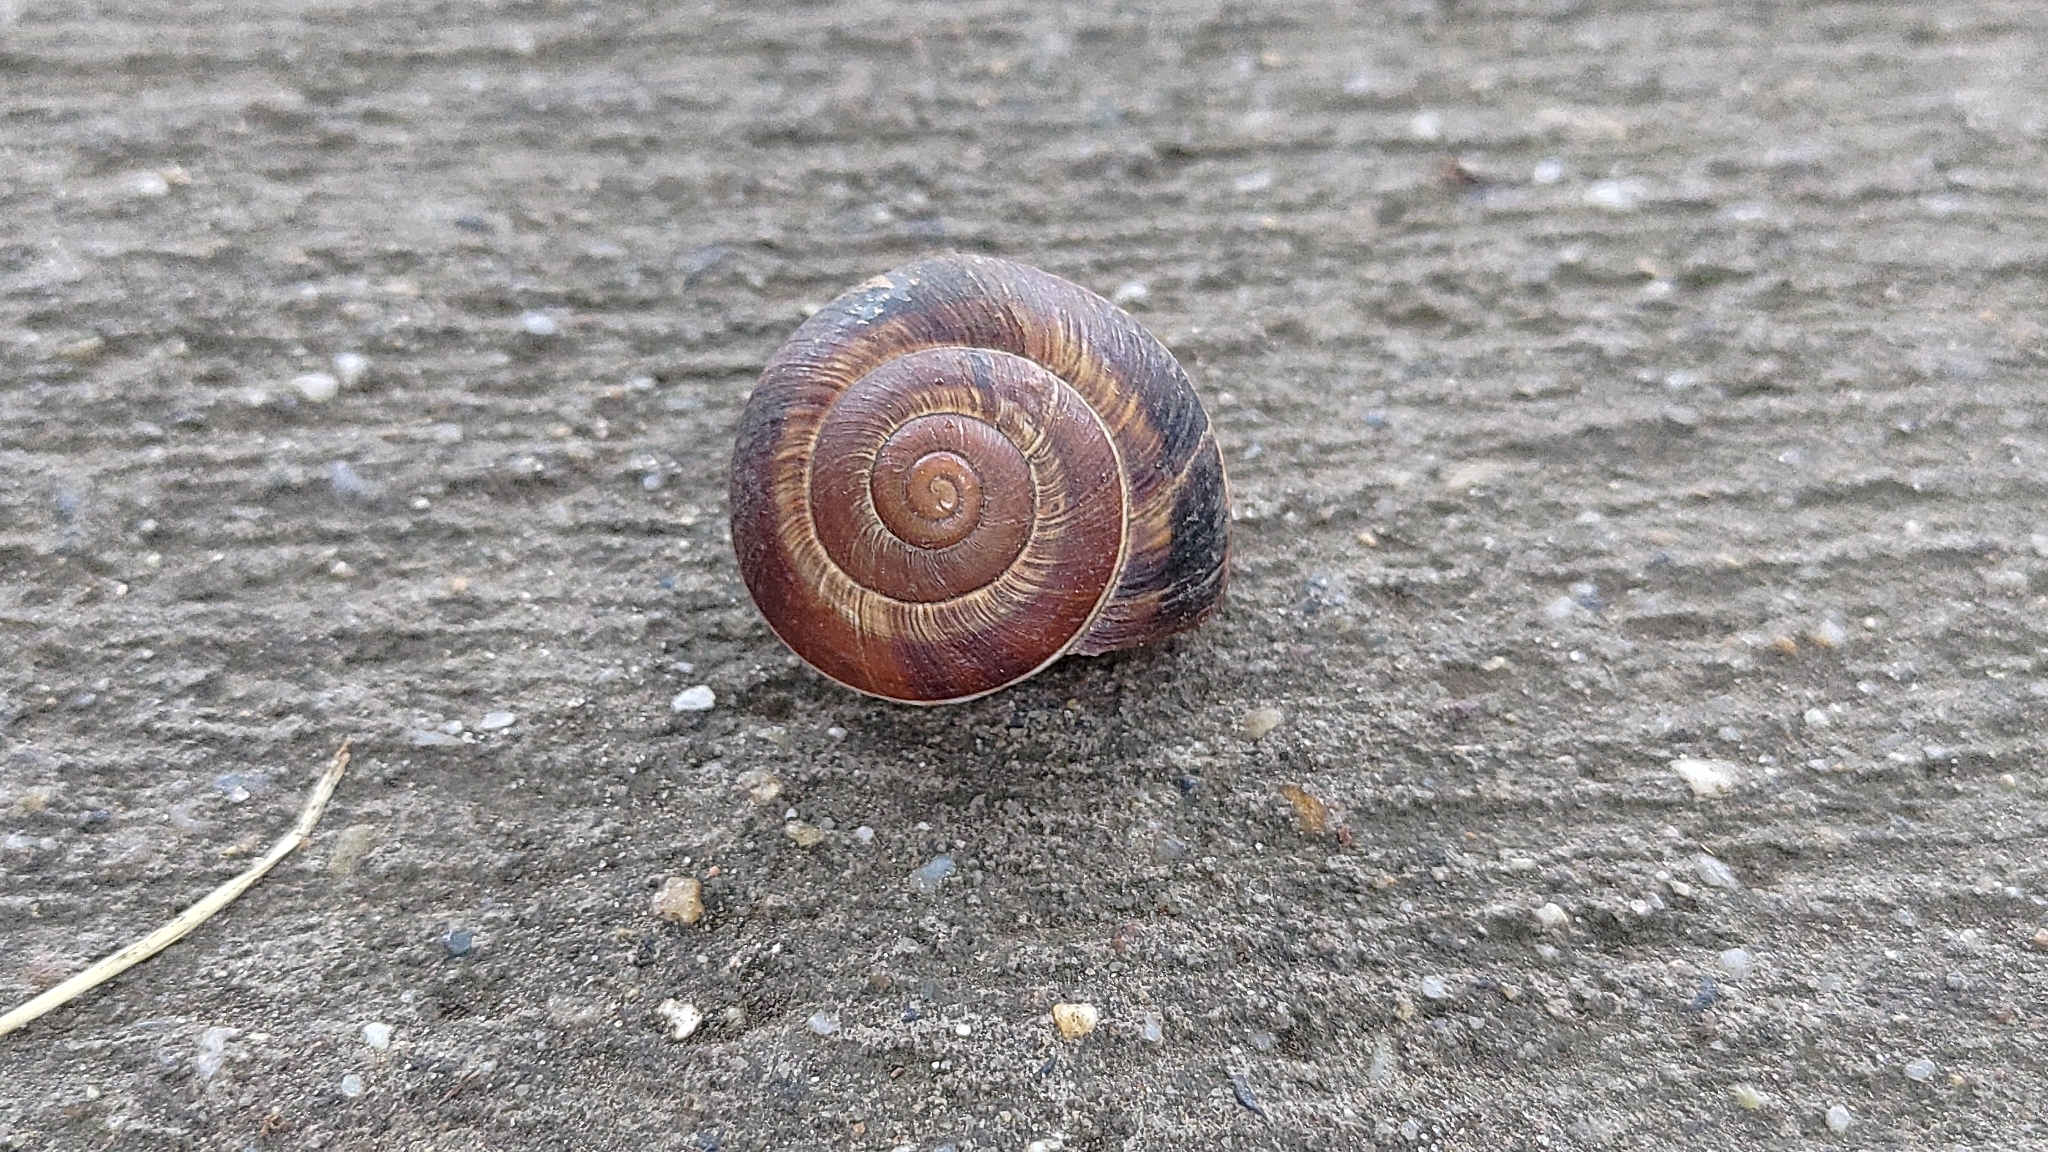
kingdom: Animalia
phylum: Mollusca
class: Gastropoda
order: Stylommatophora
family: Helicidae
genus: Helix
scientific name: Helix lucorum
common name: Turkish snail
